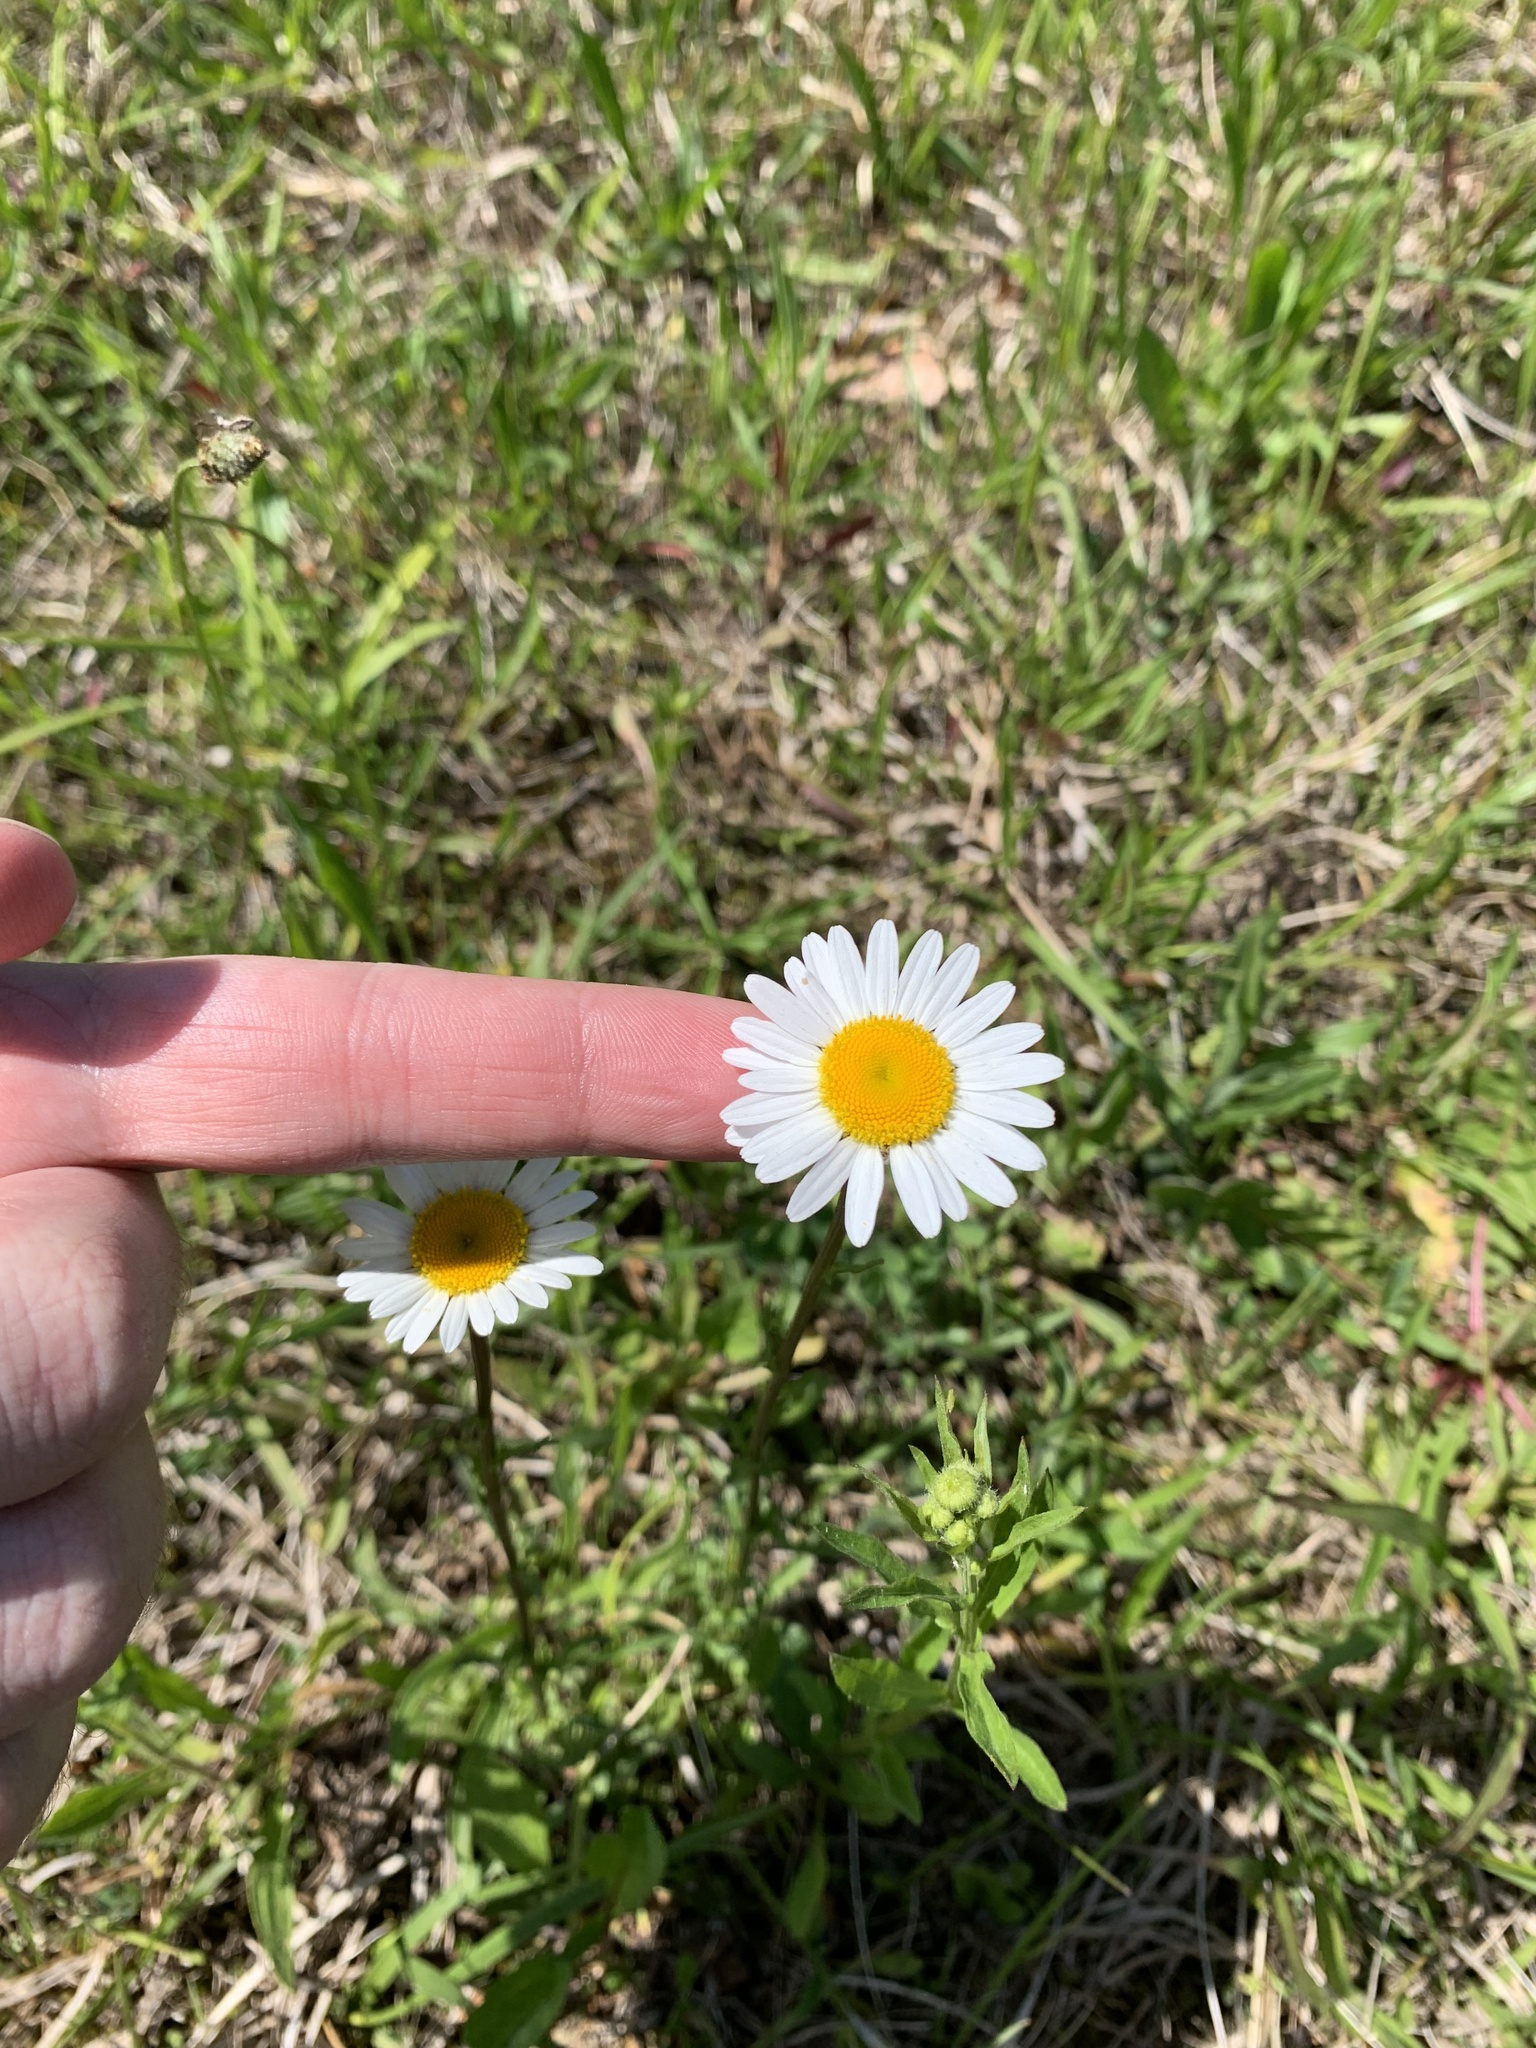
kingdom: Plantae
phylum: Tracheophyta
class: Magnoliopsida
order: Asterales
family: Asteraceae
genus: Leucanthemum
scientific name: Leucanthemum vulgare
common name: Oxeye daisy
